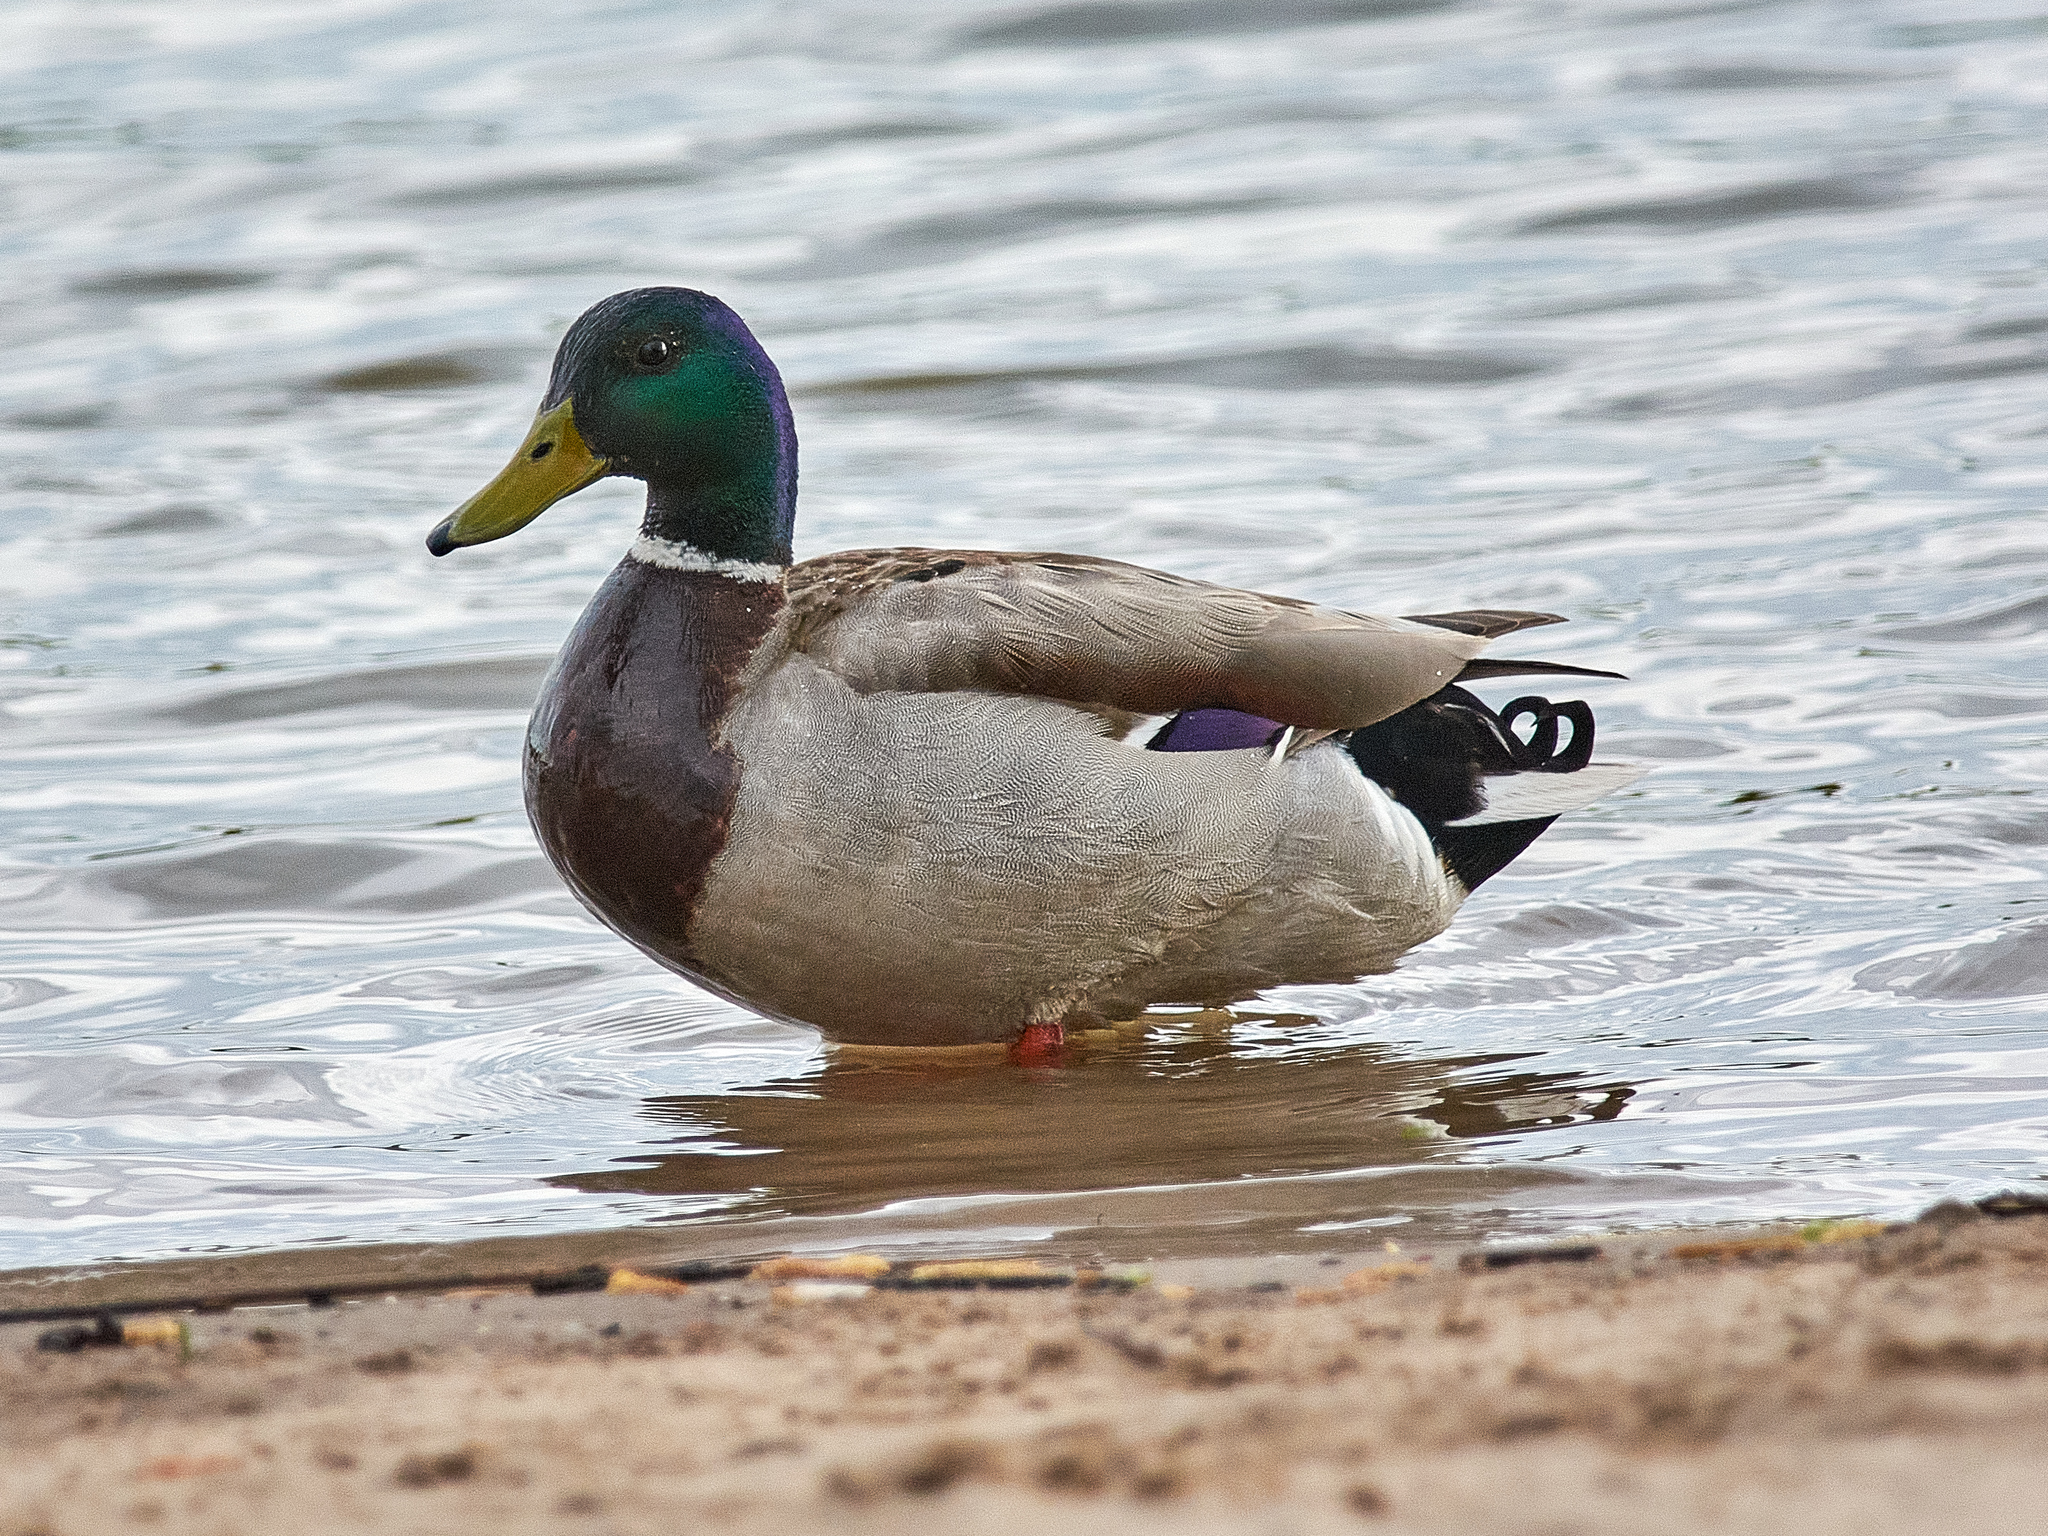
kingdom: Animalia
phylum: Chordata
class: Aves
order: Anseriformes
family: Anatidae
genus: Anas
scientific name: Anas platyrhynchos
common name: Mallard
